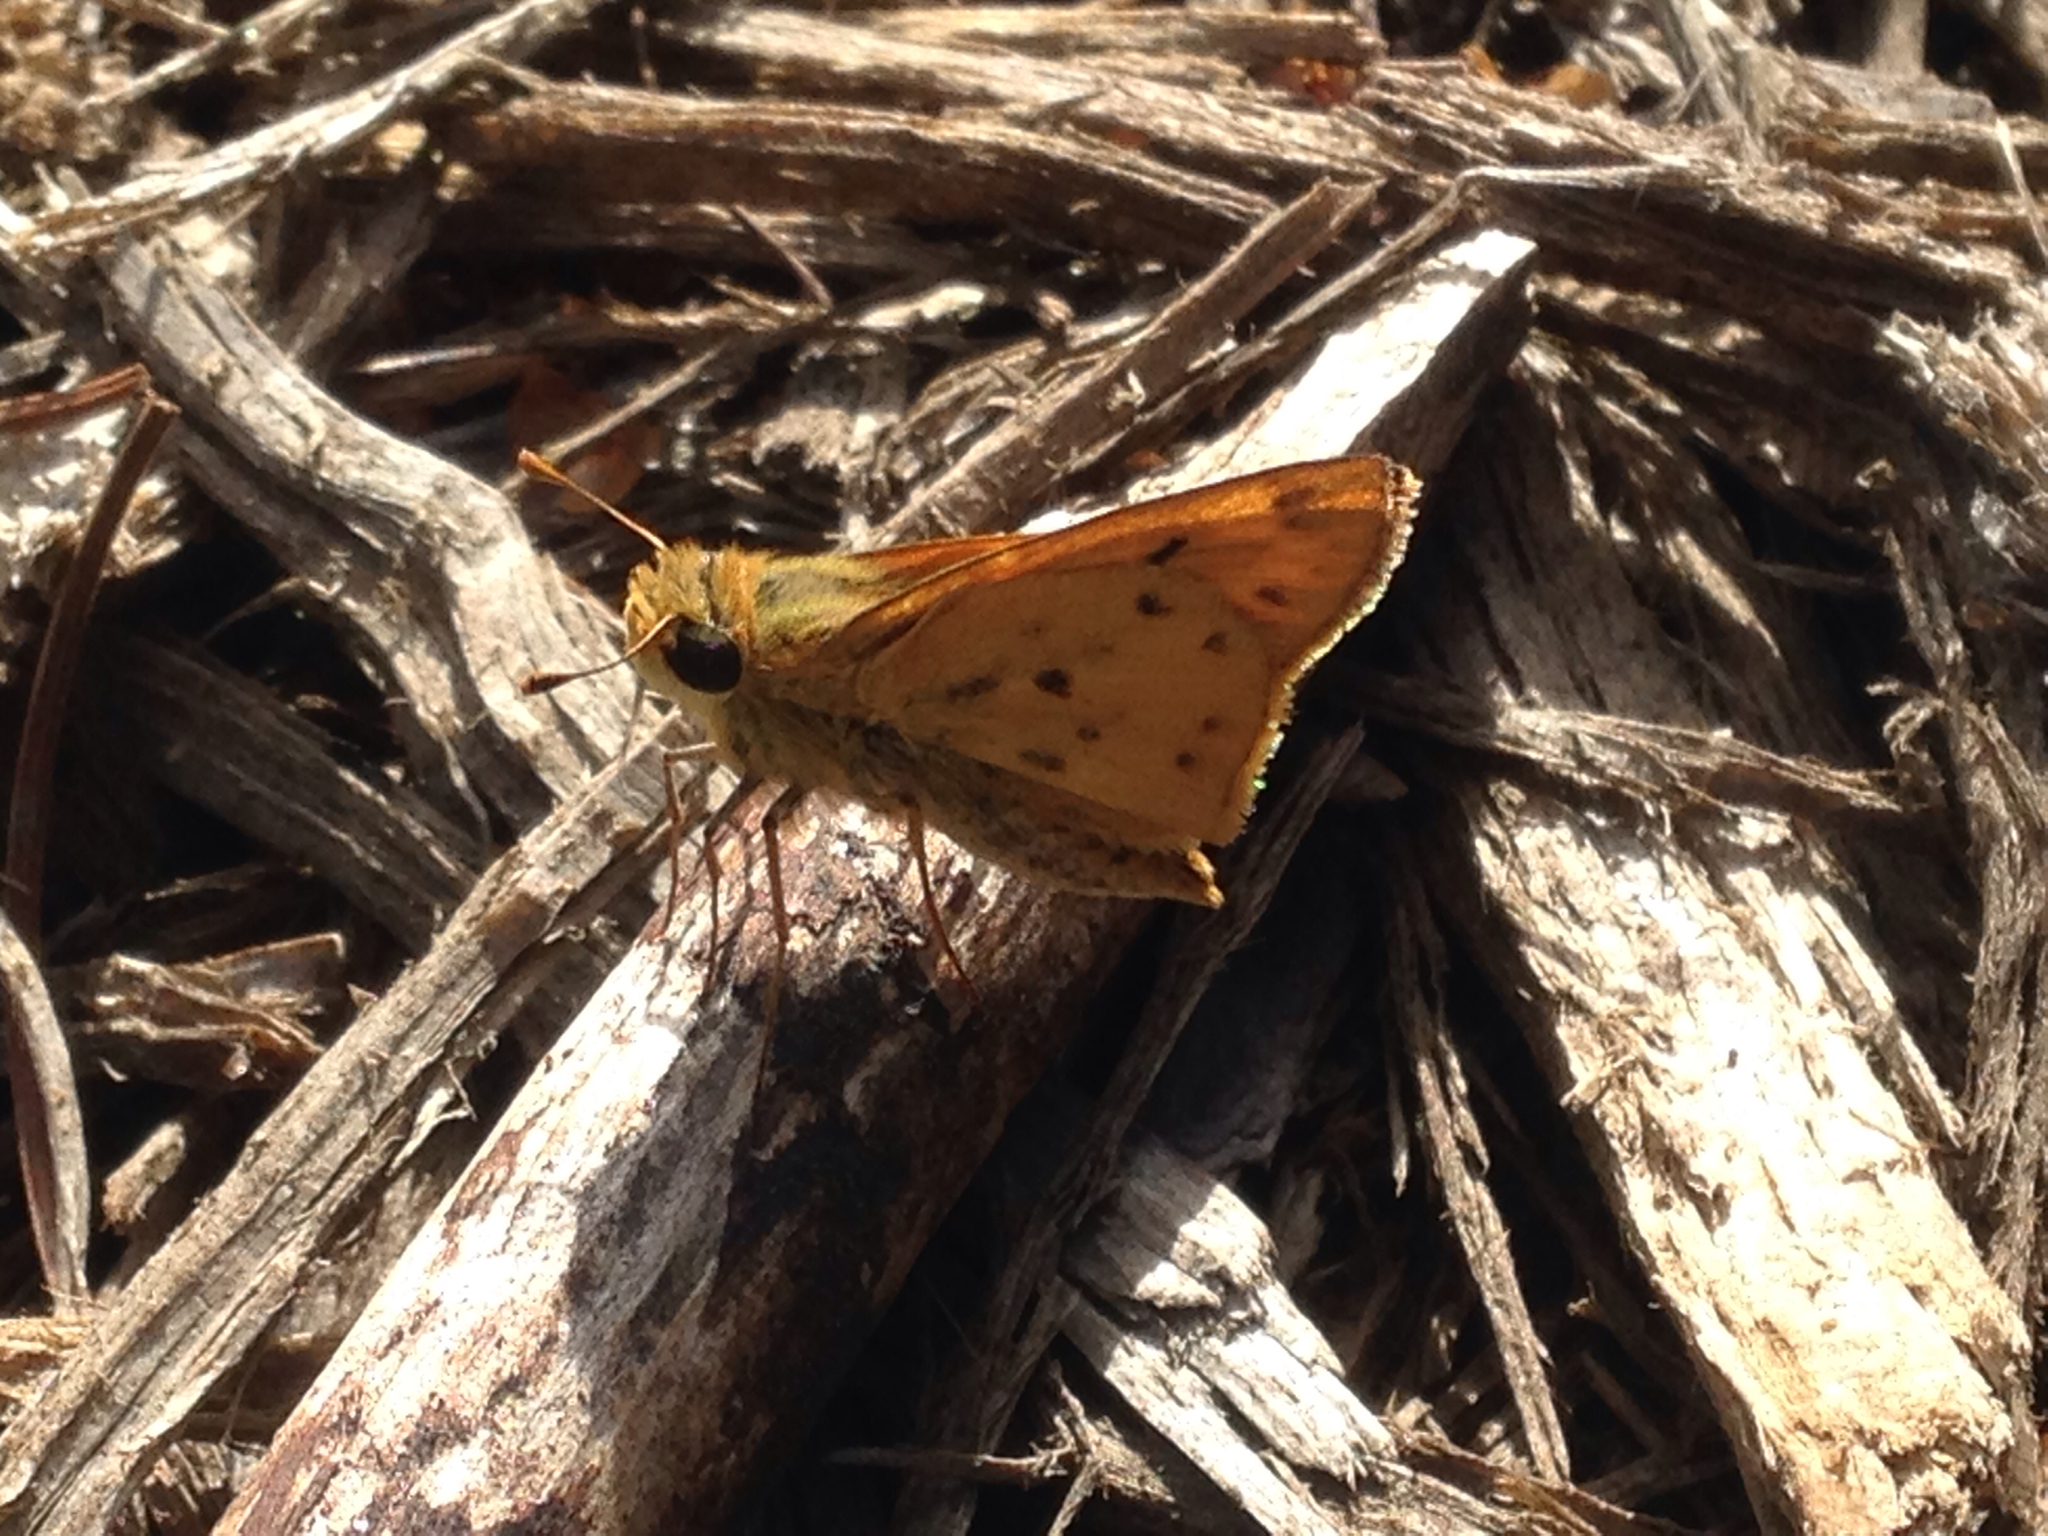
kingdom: Animalia
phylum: Arthropoda
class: Insecta
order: Lepidoptera
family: Hesperiidae
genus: Hylephila
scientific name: Hylephila phyleus
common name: Fiery skipper
